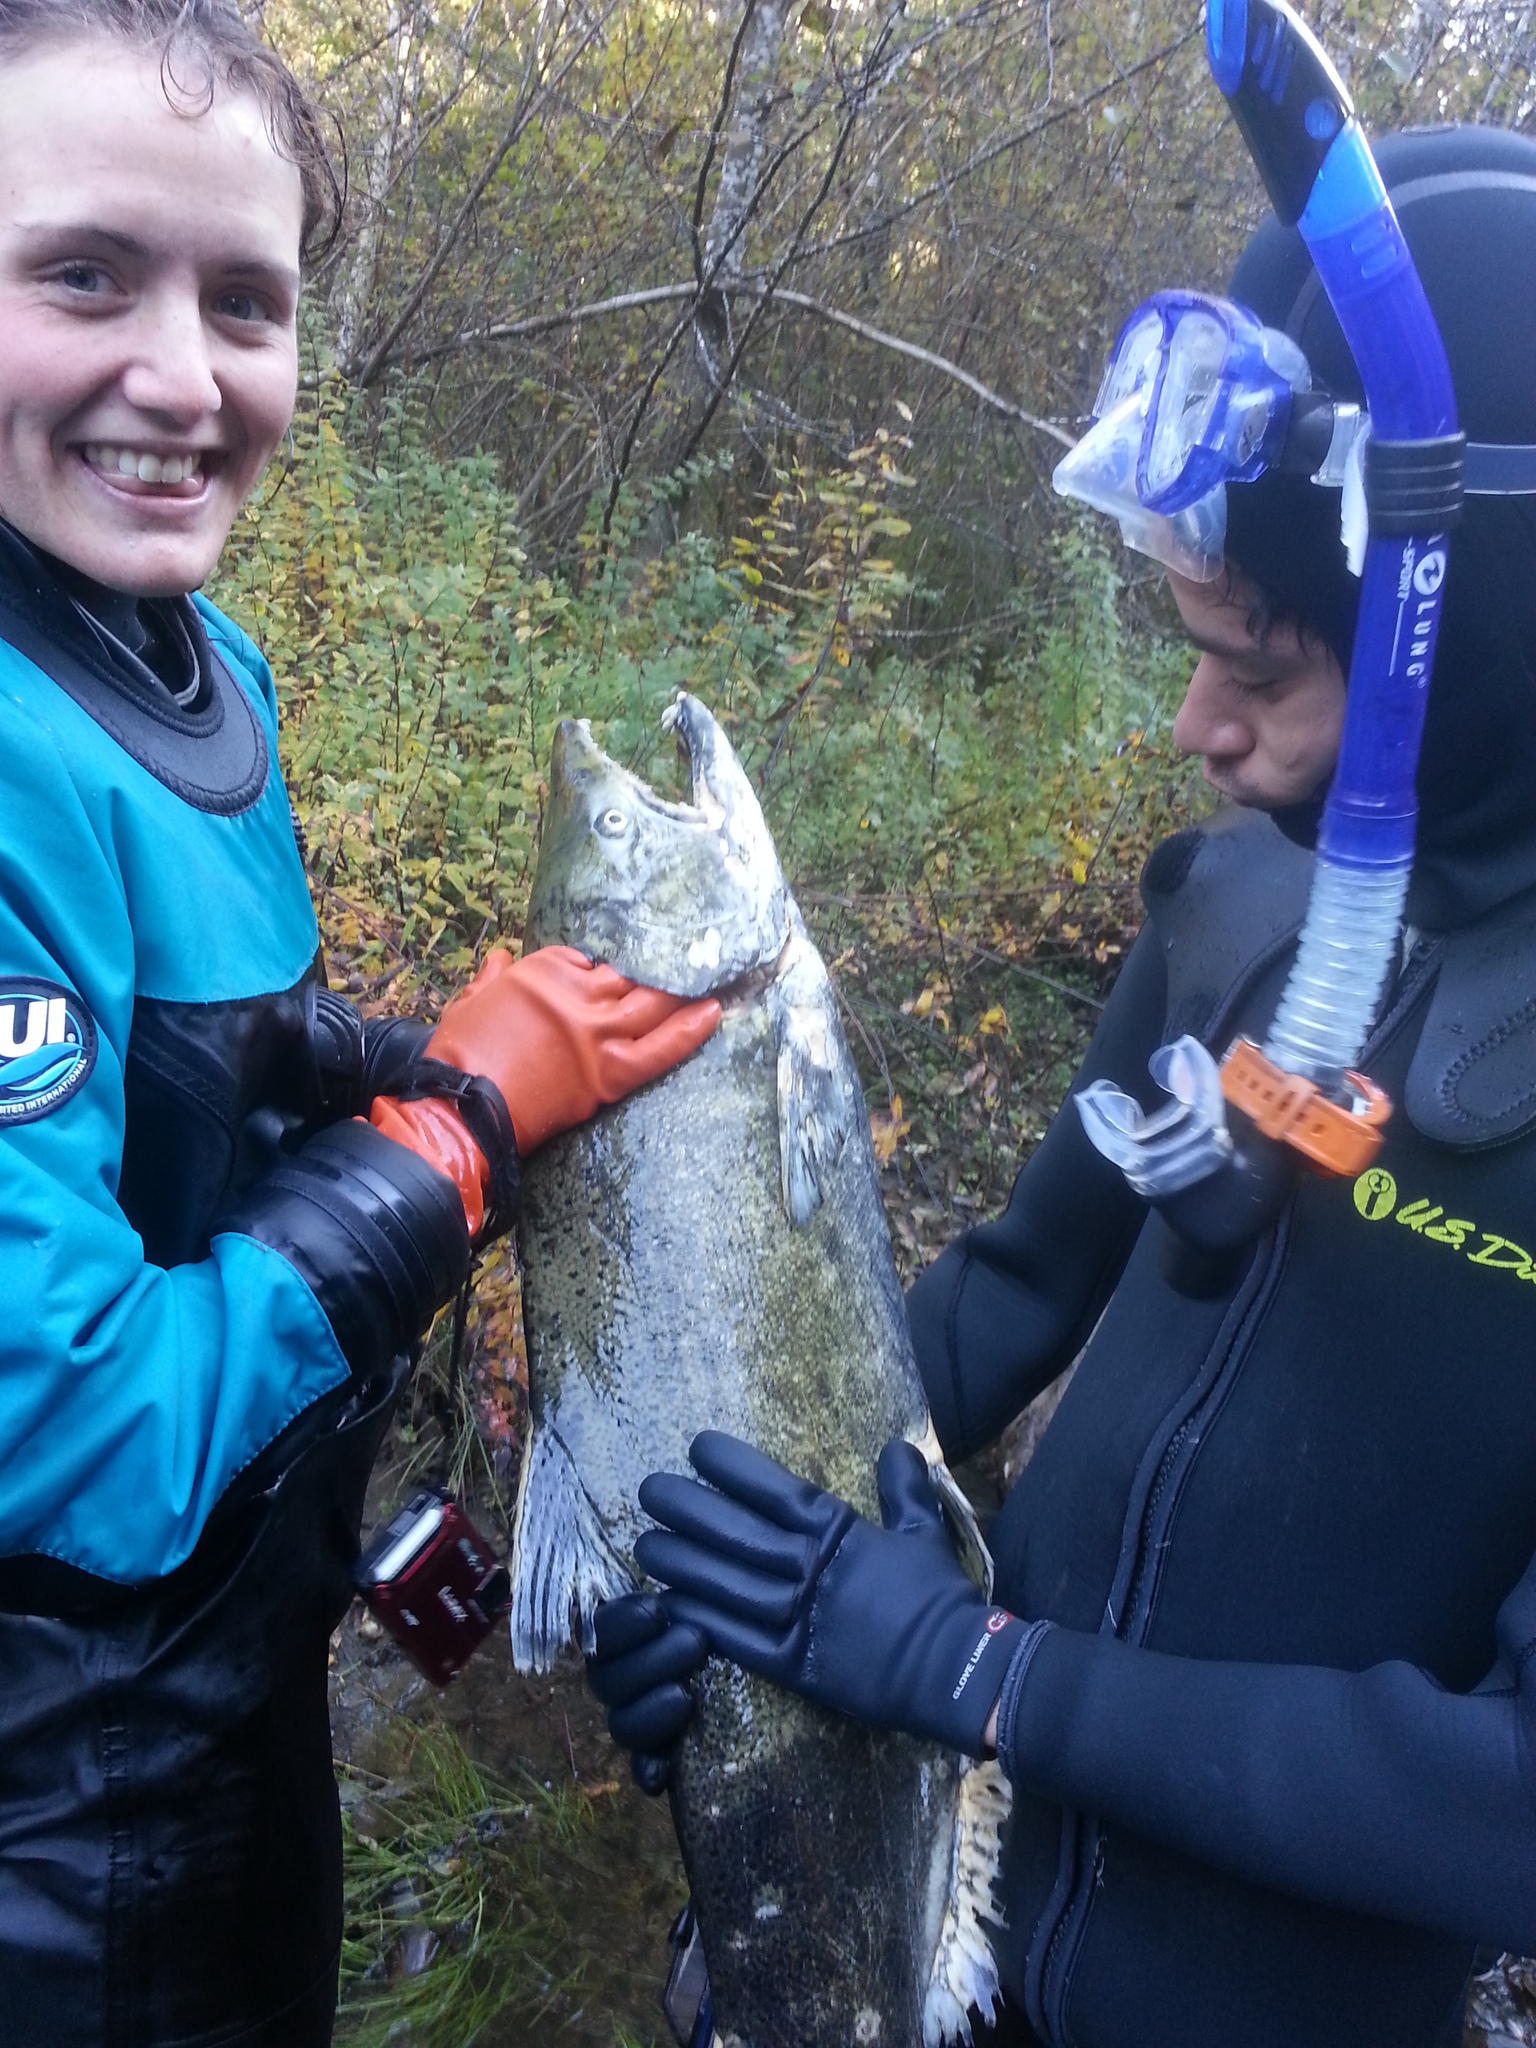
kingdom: Animalia
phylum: Chordata
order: Salmoniformes
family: Salmonidae
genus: Oncorhynchus
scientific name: Oncorhynchus tshawytscha
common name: Chinook salmon
